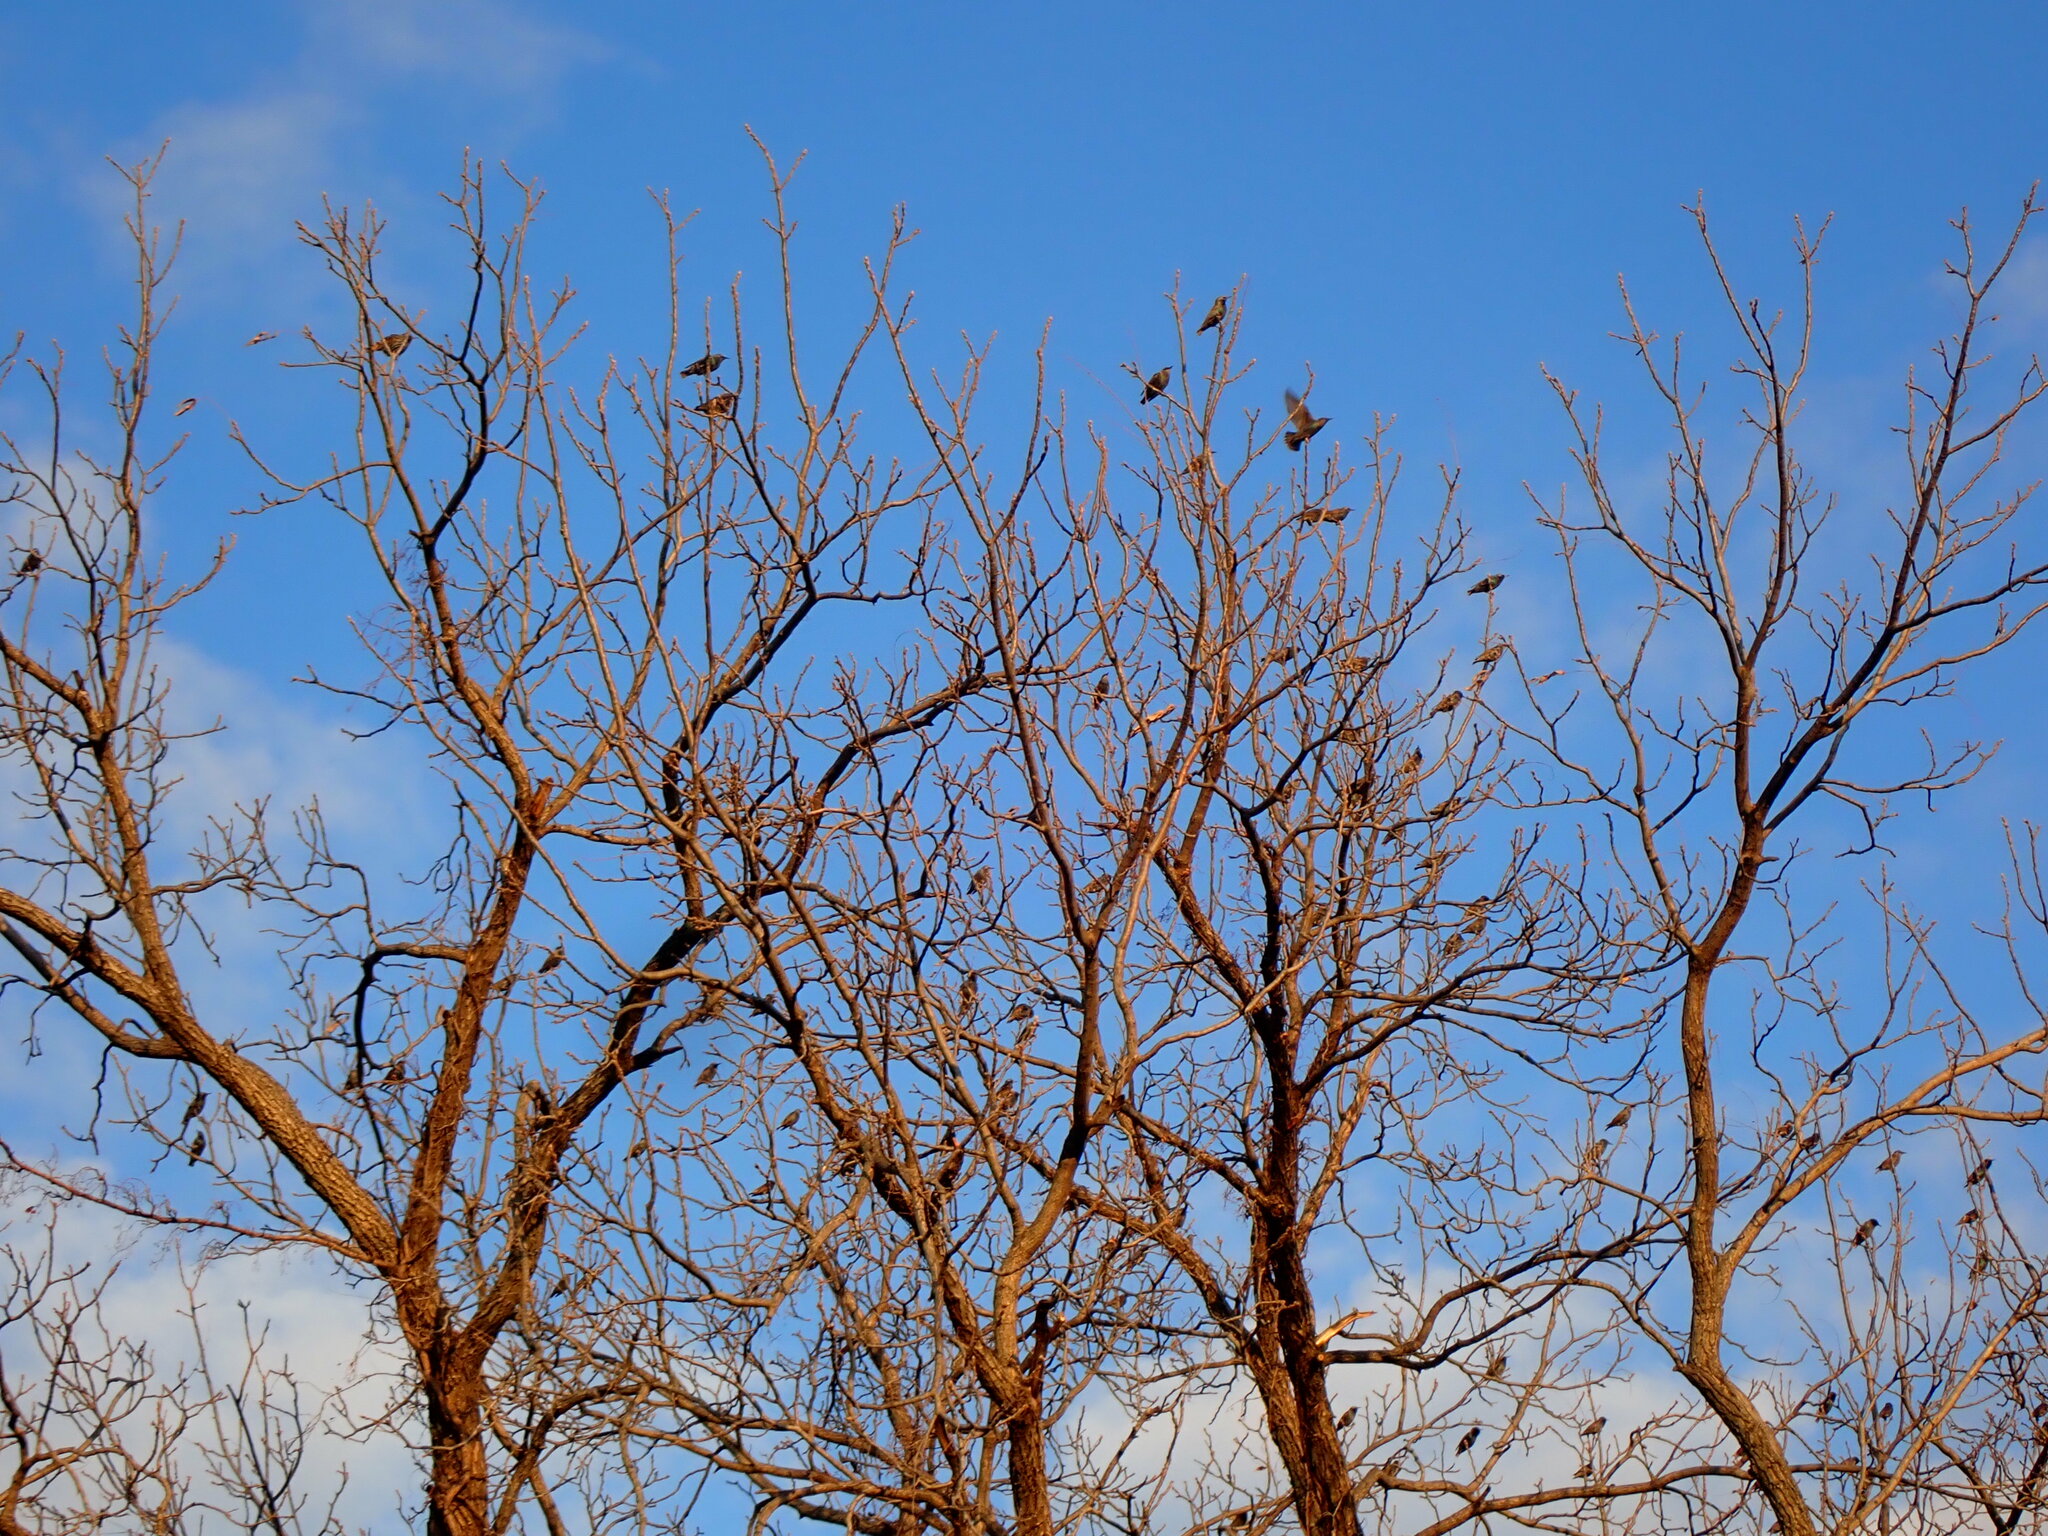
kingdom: Animalia
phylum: Chordata
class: Aves
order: Passeriformes
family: Sturnidae
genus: Sturnus
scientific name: Sturnus vulgaris
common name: Common starling
